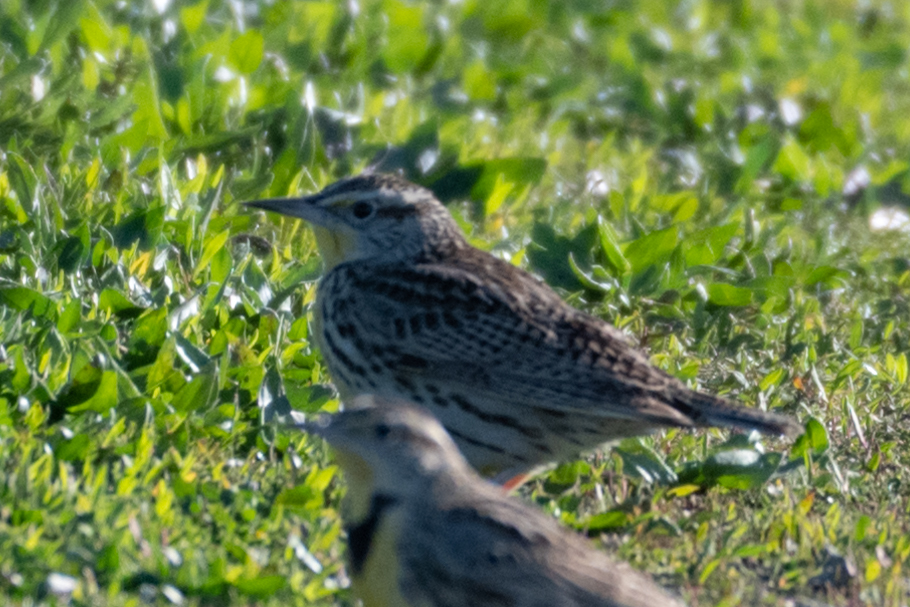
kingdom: Animalia
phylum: Chordata
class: Aves
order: Passeriformes
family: Icteridae
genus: Sturnella
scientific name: Sturnella neglecta
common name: Western meadowlark
